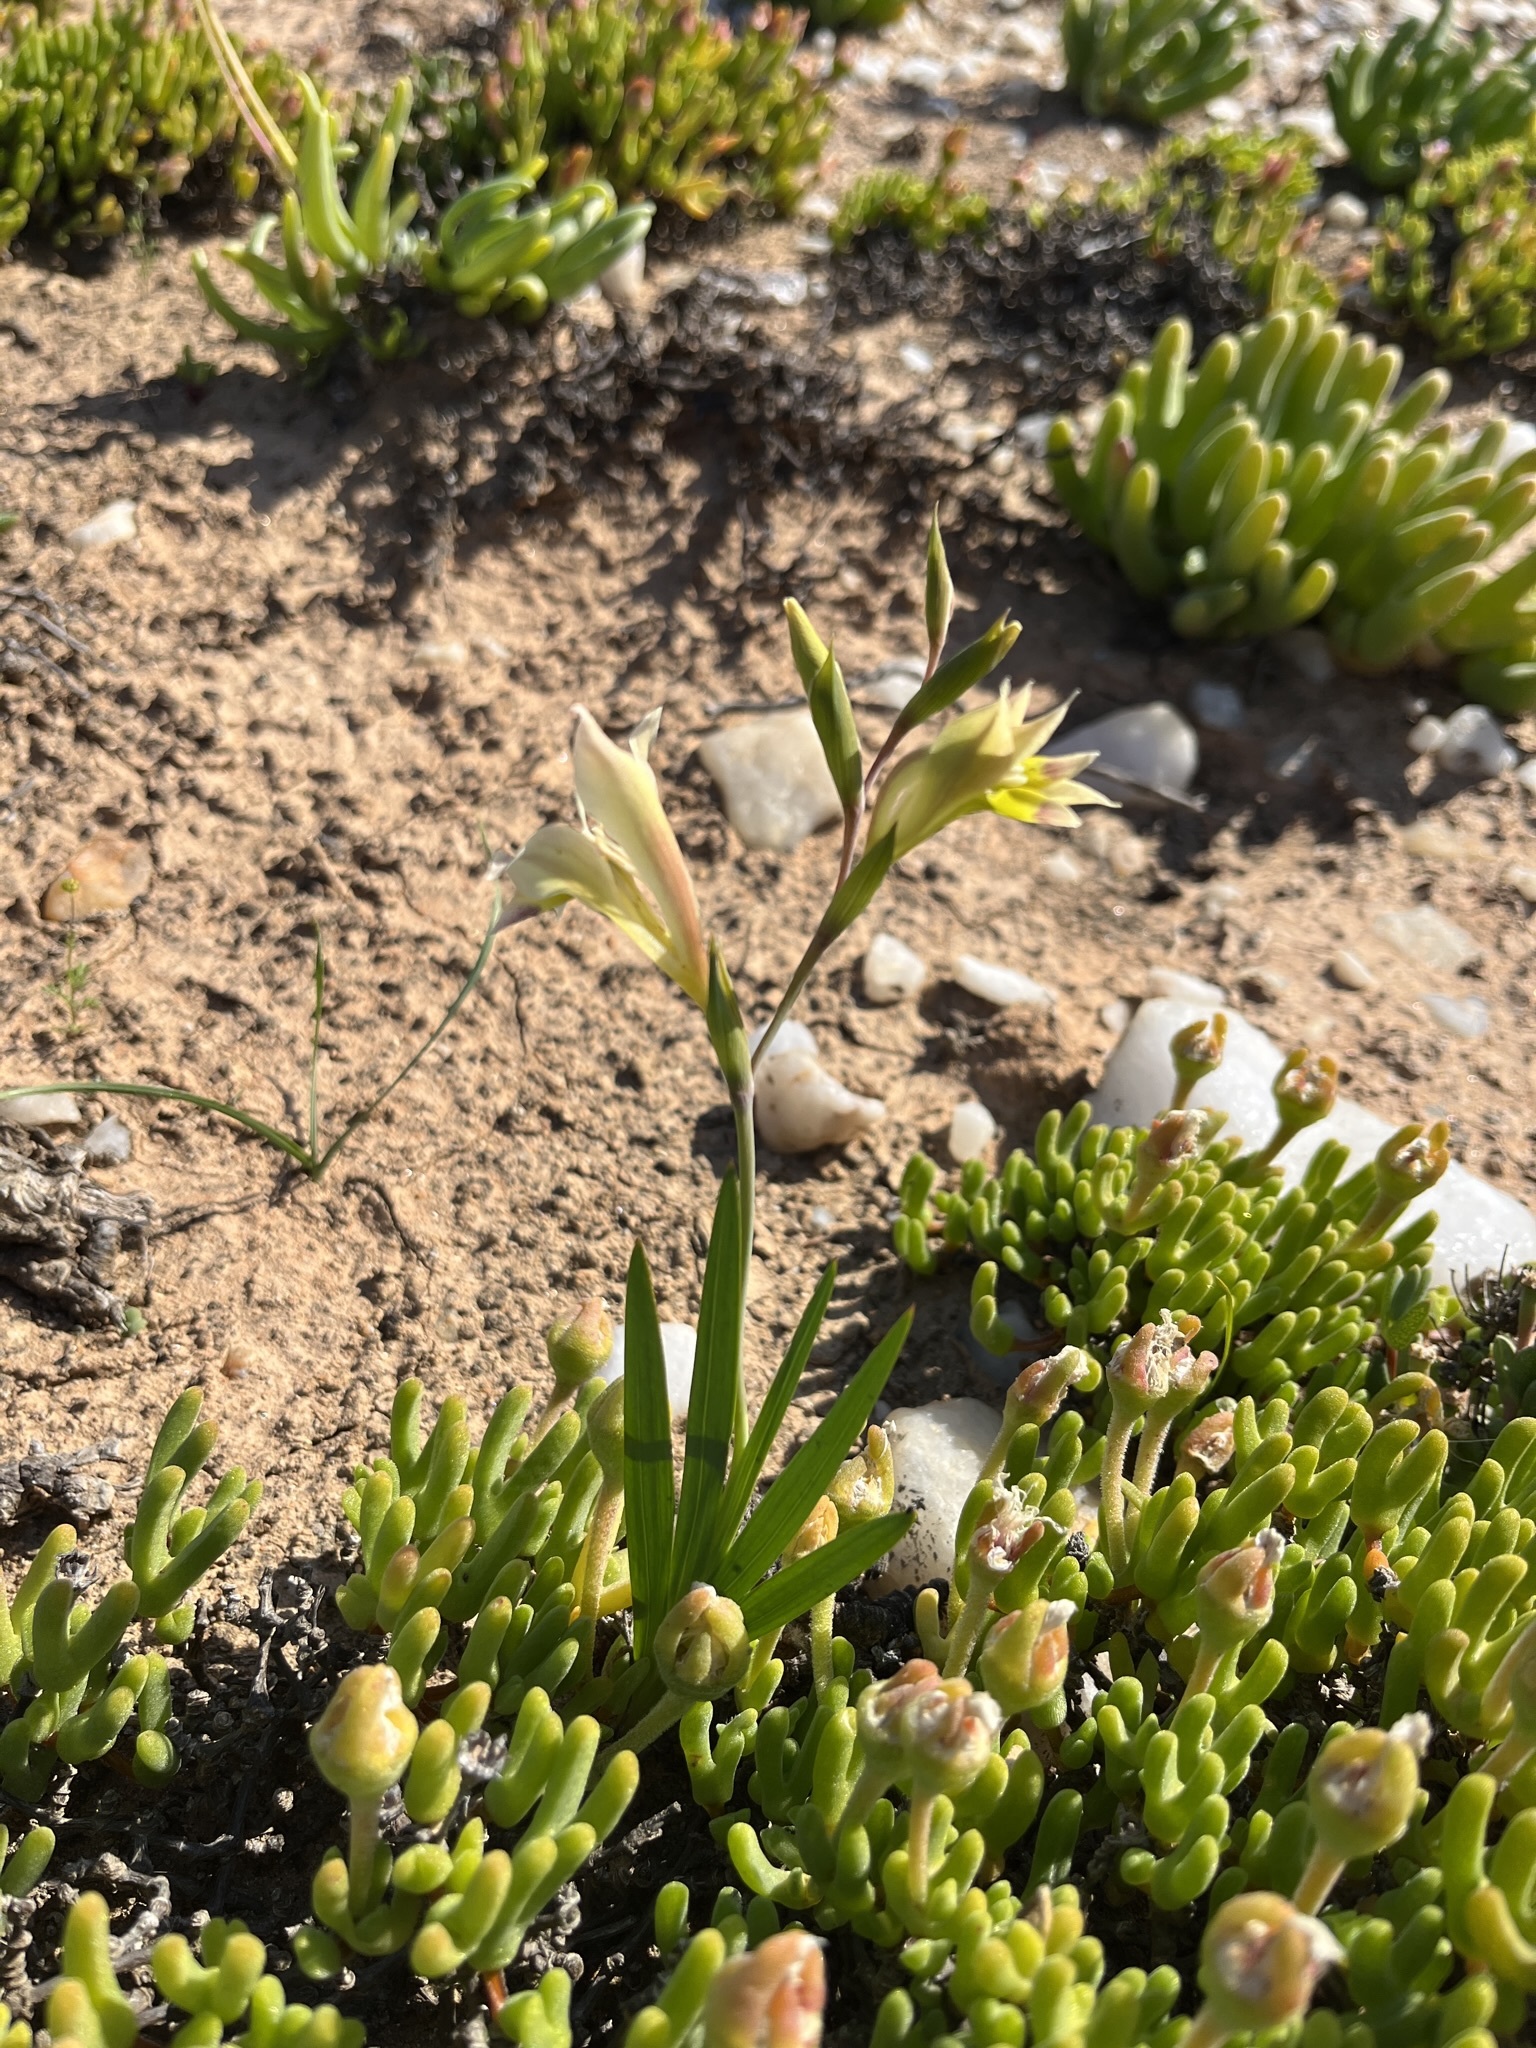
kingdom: Plantae
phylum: Tracheophyta
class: Liliopsida
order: Asparagales
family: Iridaceae
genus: Gladiolus
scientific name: Gladiolus scullyi
